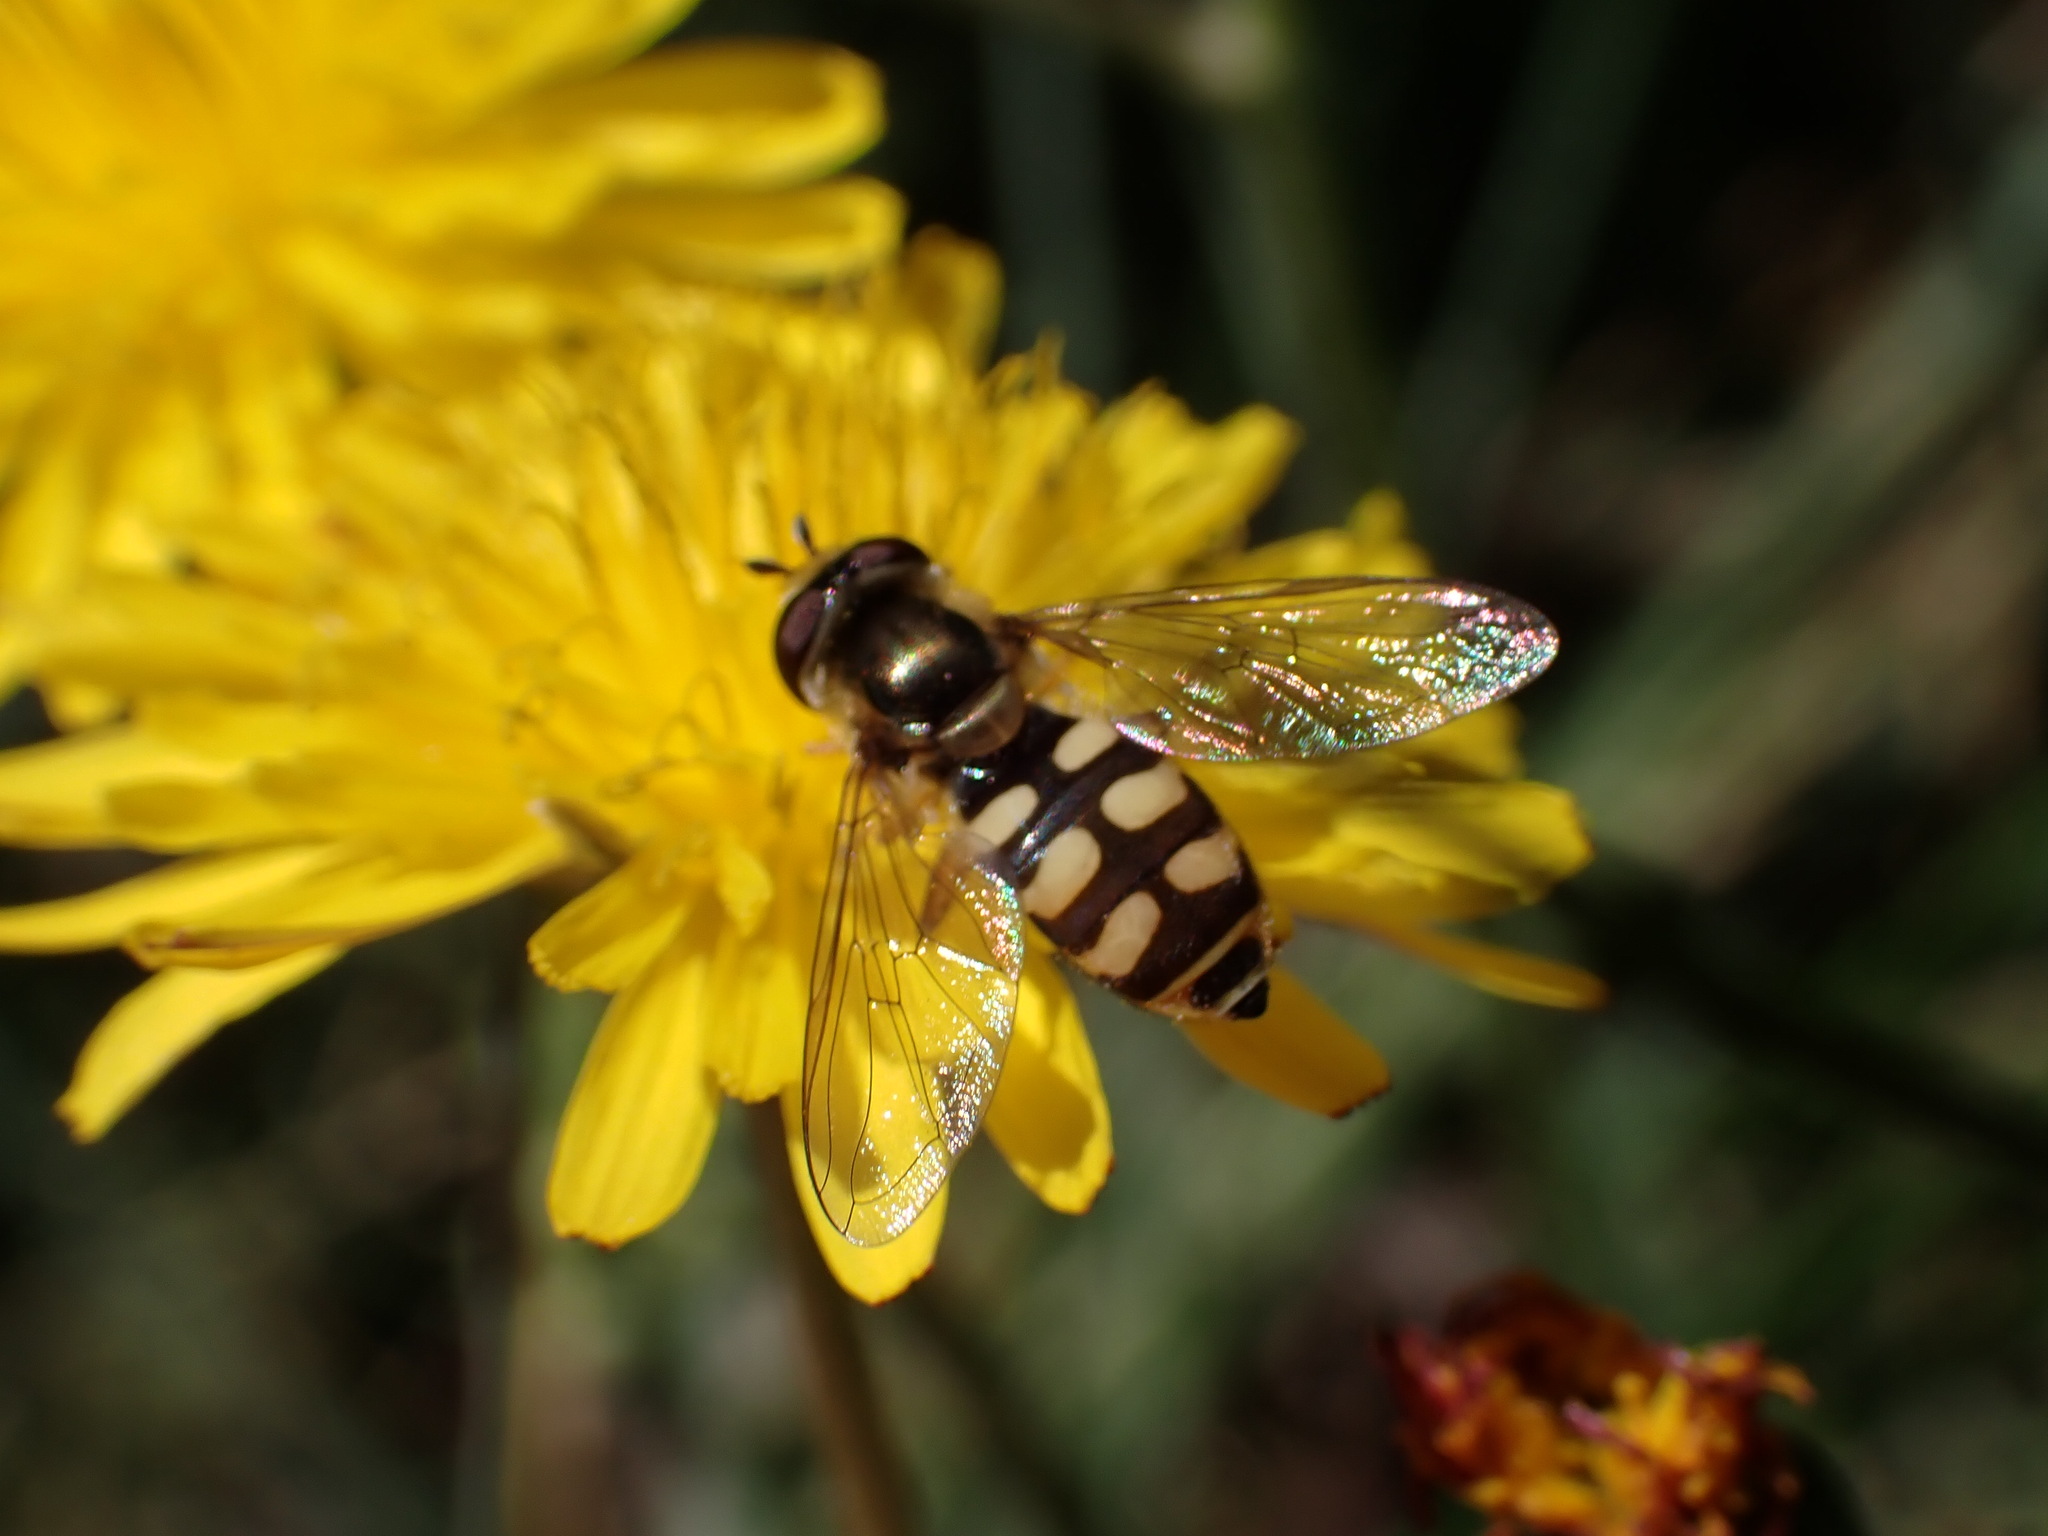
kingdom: Animalia
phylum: Arthropoda
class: Insecta
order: Diptera
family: Syrphidae
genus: Eupeodes
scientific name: Eupeodes corollae
